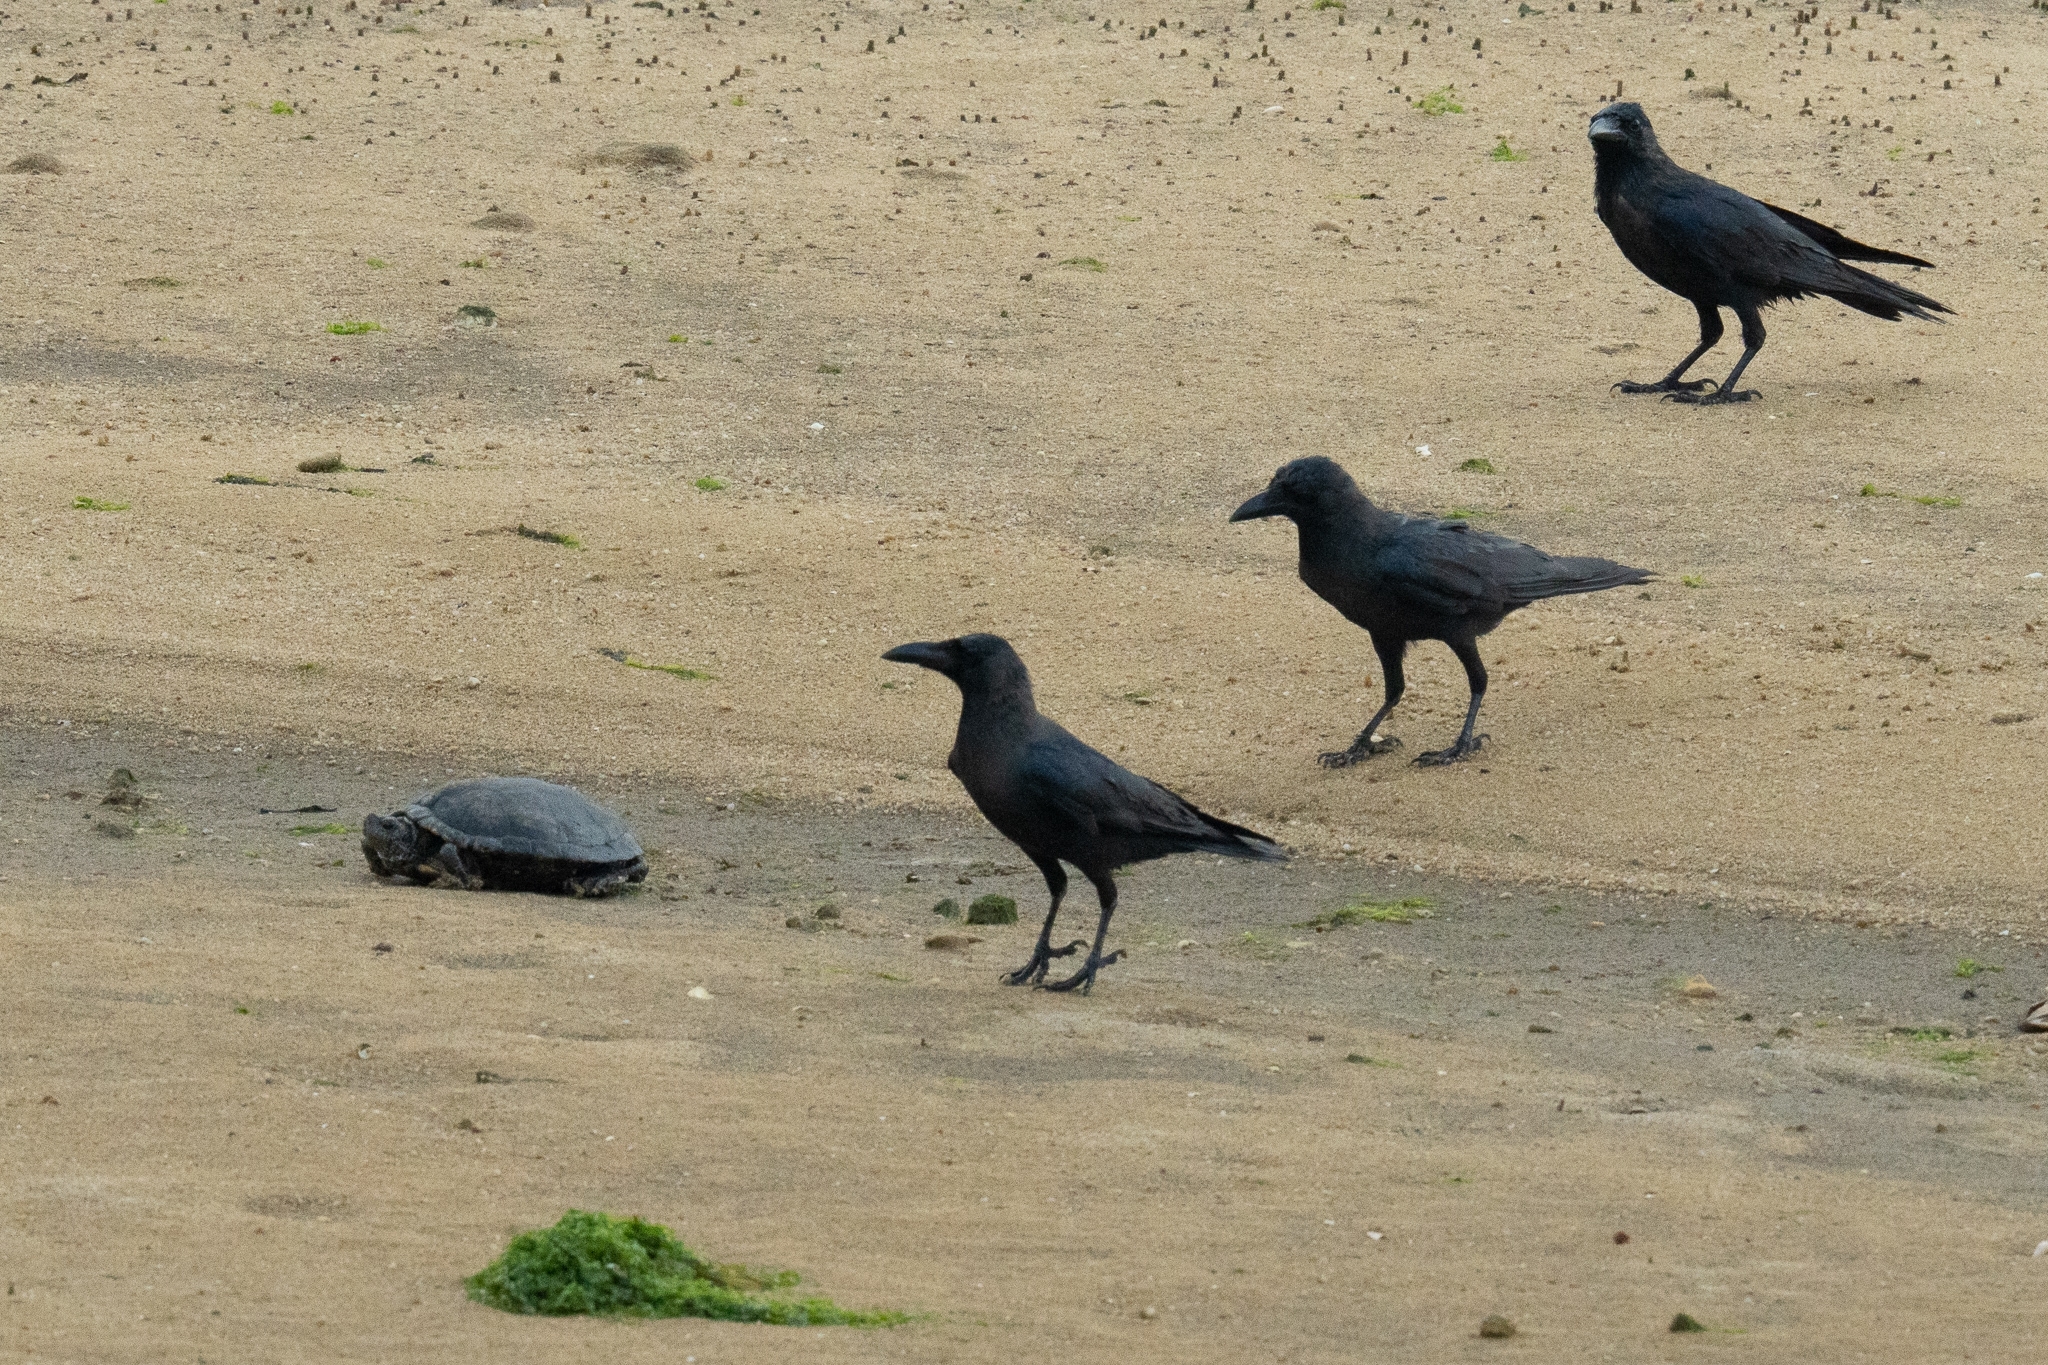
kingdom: Animalia
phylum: Chordata
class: Aves
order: Passeriformes
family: Corvidae
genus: Corvus
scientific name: Corvus splendens
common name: House crow
